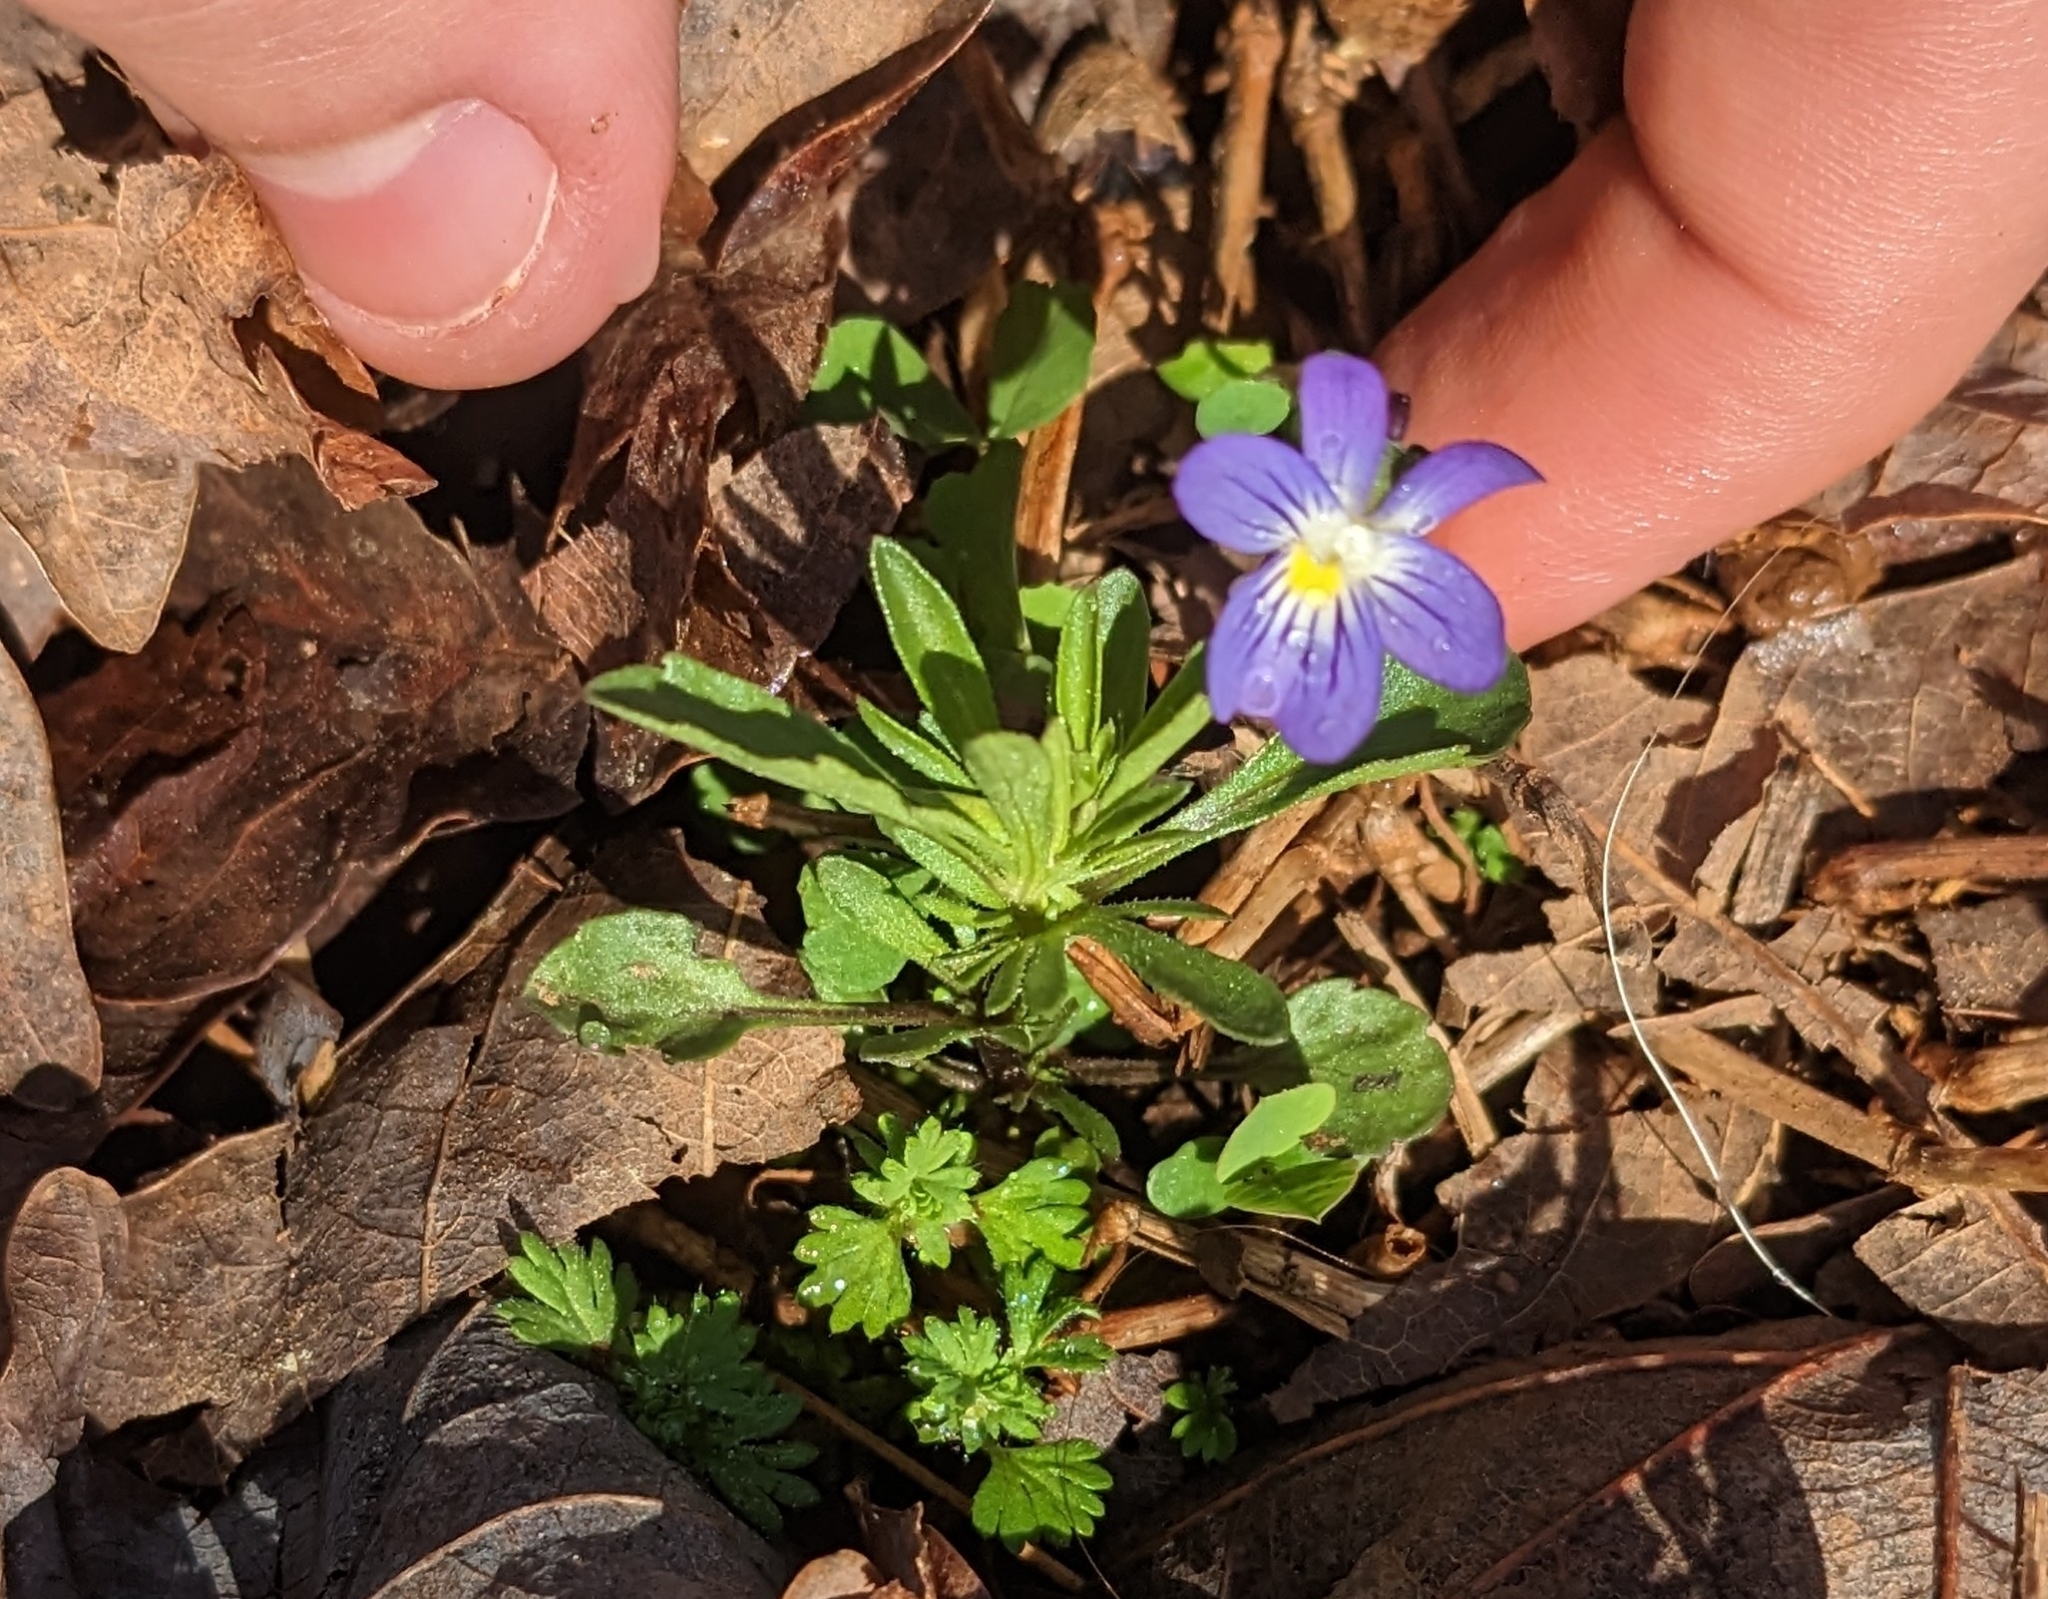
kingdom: Plantae
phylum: Tracheophyta
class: Magnoliopsida
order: Malpighiales
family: Violaceae
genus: Viola
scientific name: Viola rafinesquei
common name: American field pansy
